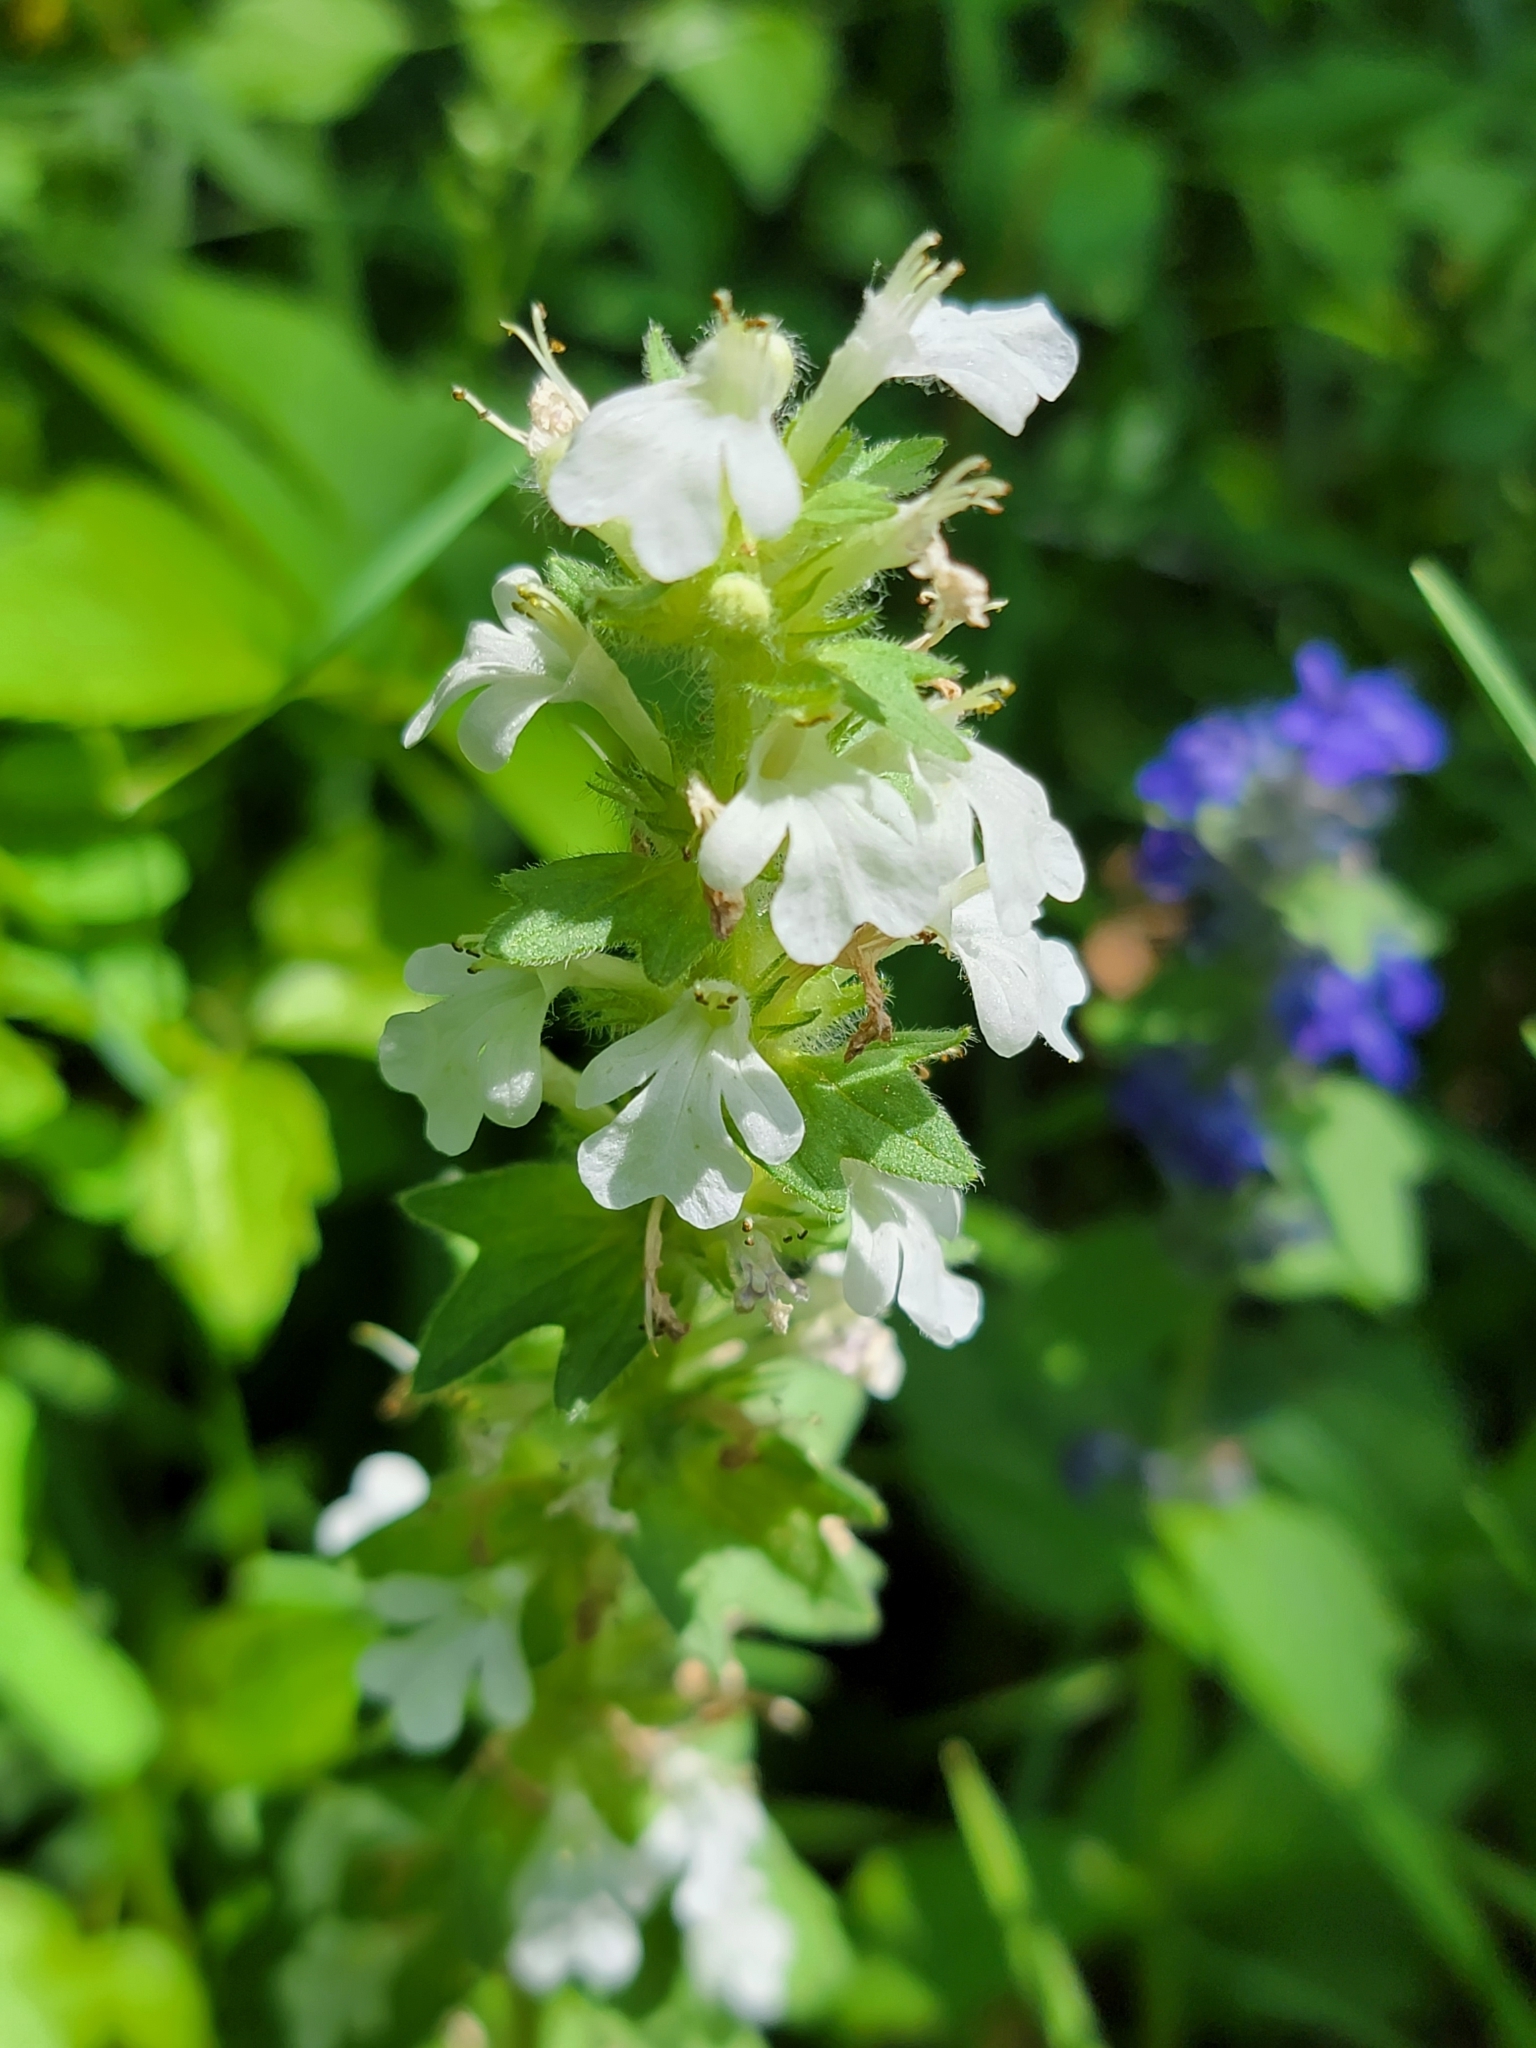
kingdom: Plantae
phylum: Tracheophyta
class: Magnoliopsida
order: Lamiales
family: Lamiaceae
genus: Ajuga
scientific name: Ajuga genevensis
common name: Blue bugle
